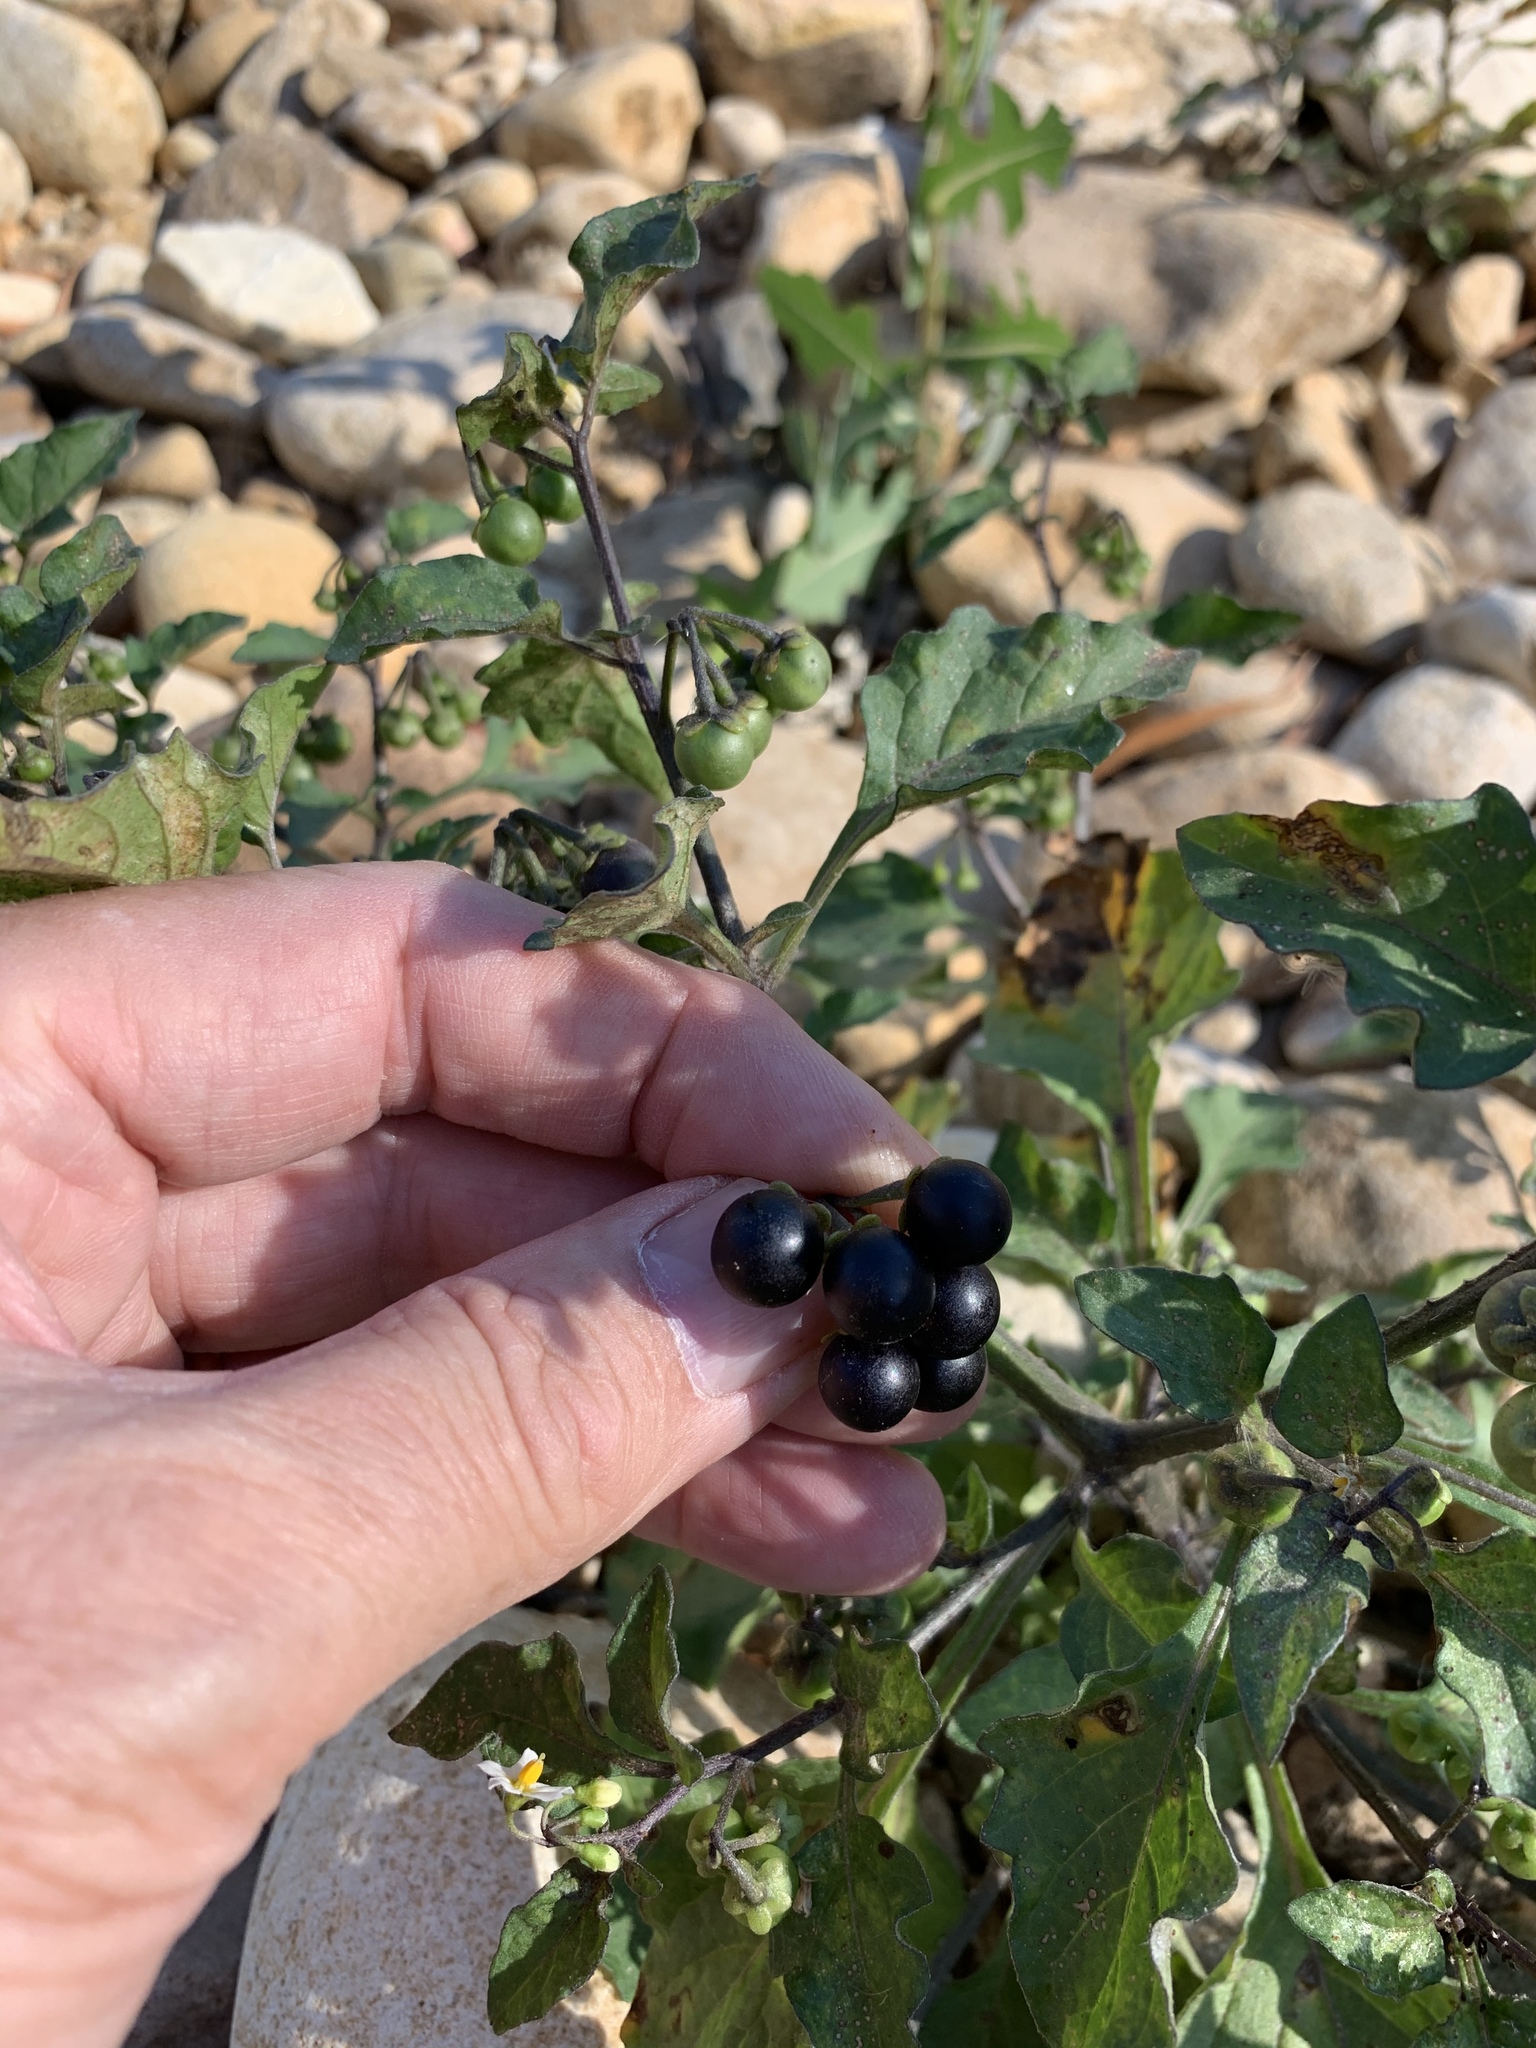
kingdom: Plantae
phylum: Tracheophyta
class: Magnoliopsida
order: Solanales
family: Solanaceae
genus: Solanum
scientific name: Solanum nigrum
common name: Black nightshade
